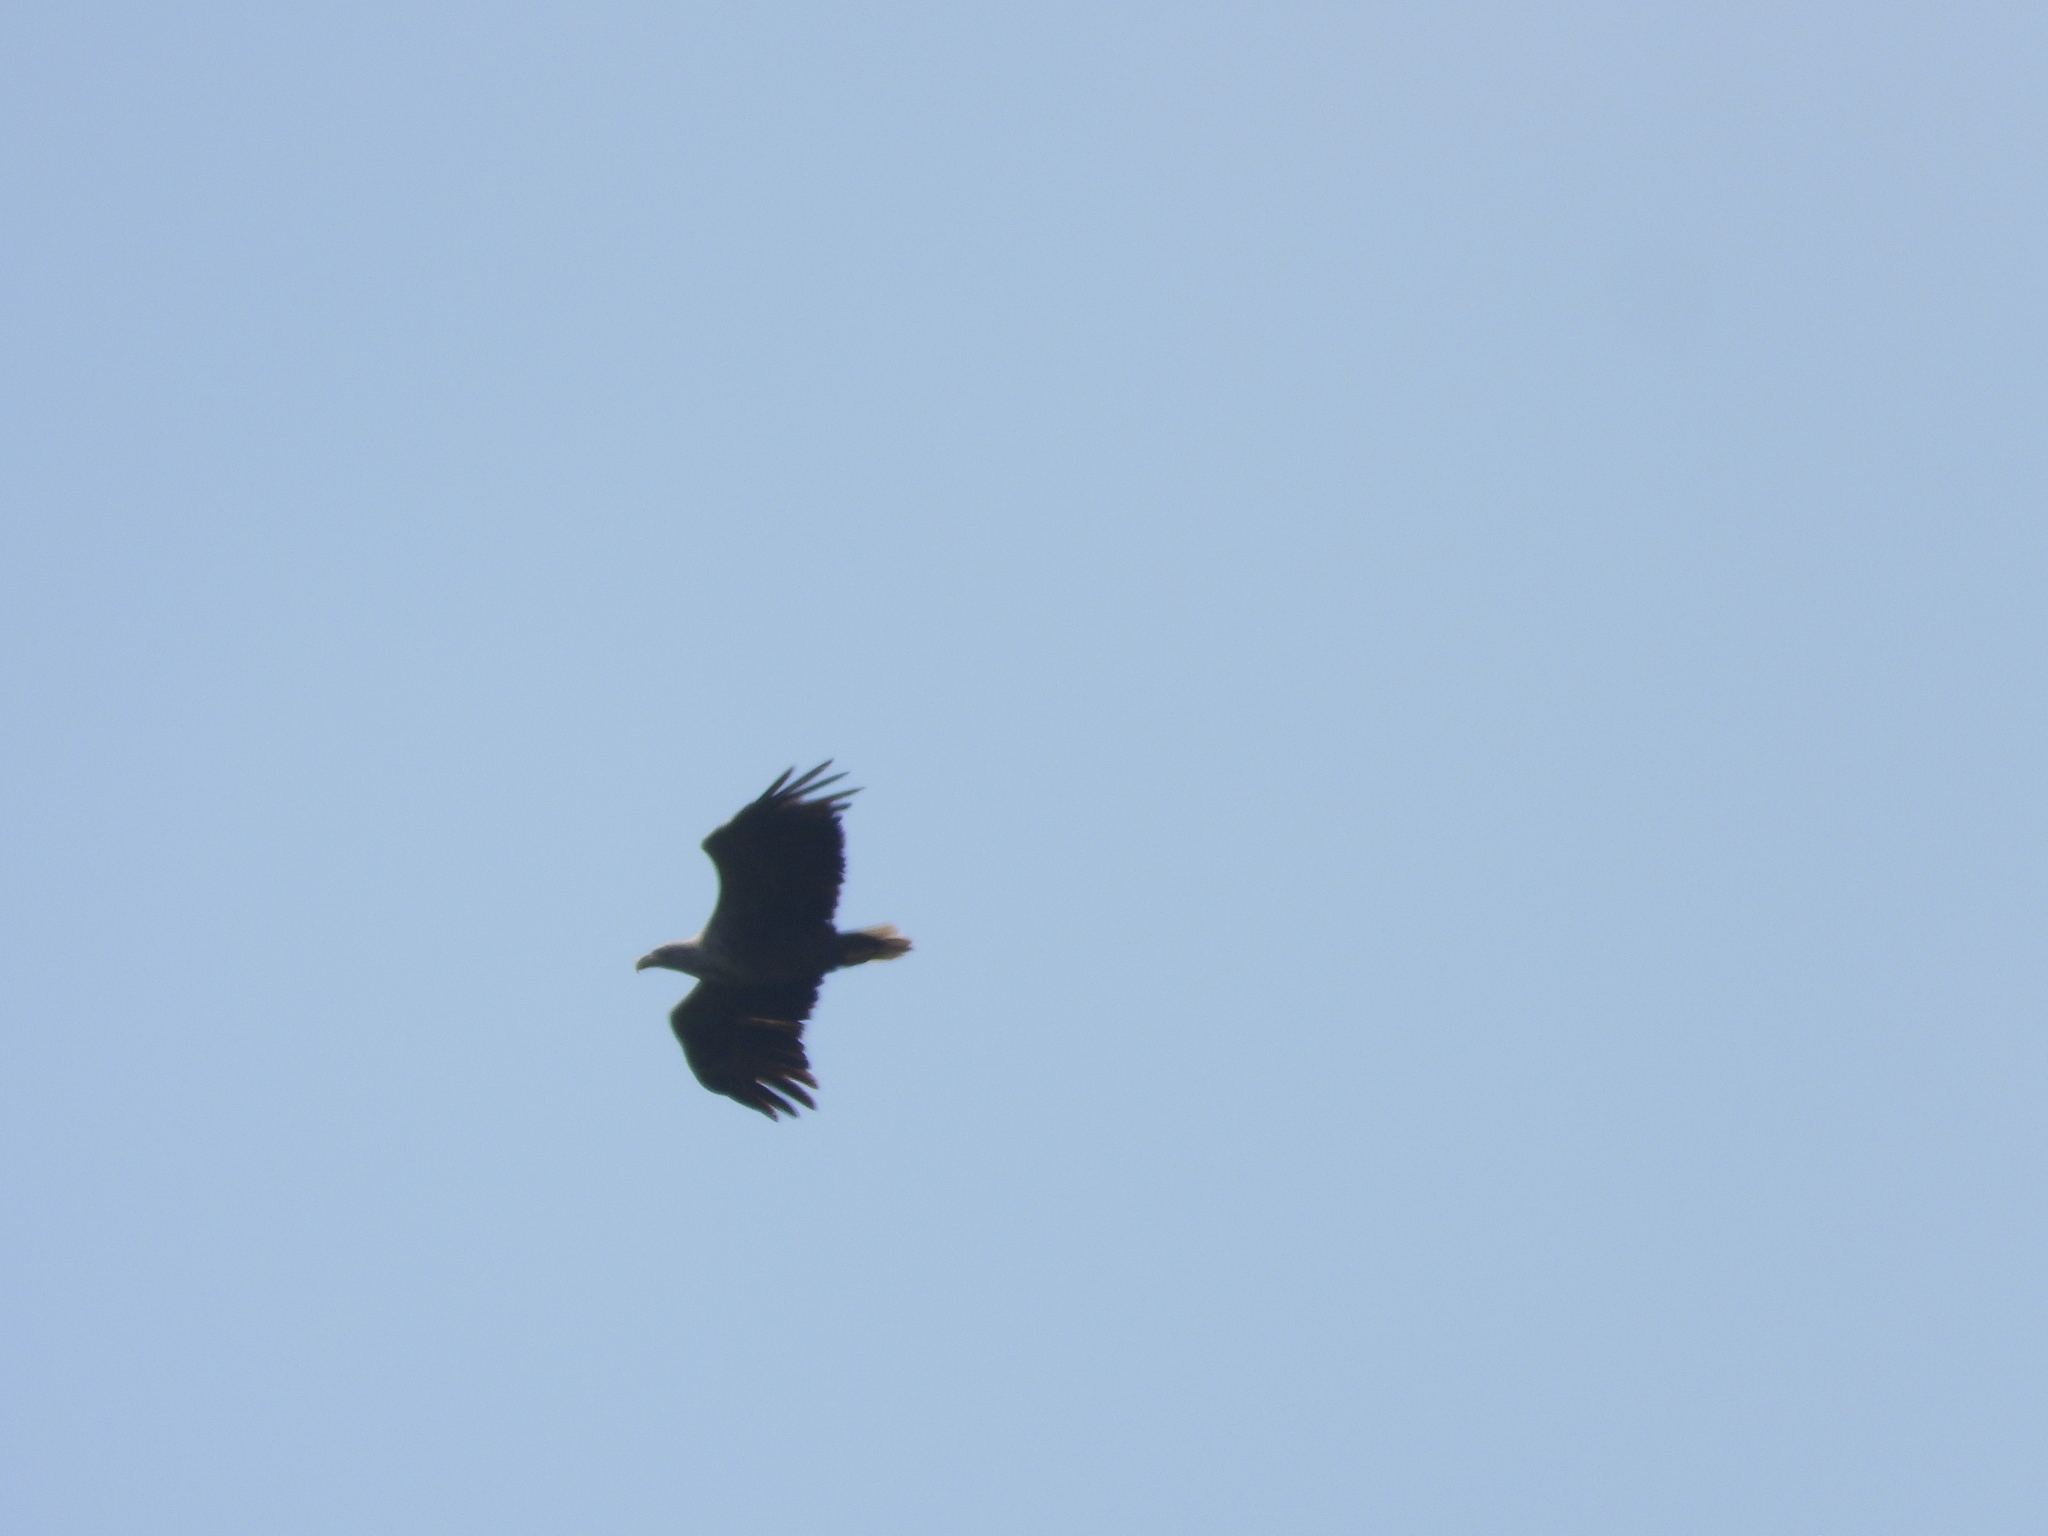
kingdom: Animalia
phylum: Chordata
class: Aves
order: Accipitriformes
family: Accipitridae
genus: Haliaeetus
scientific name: Haliaeetus albicilla
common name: White-tailed eagle
